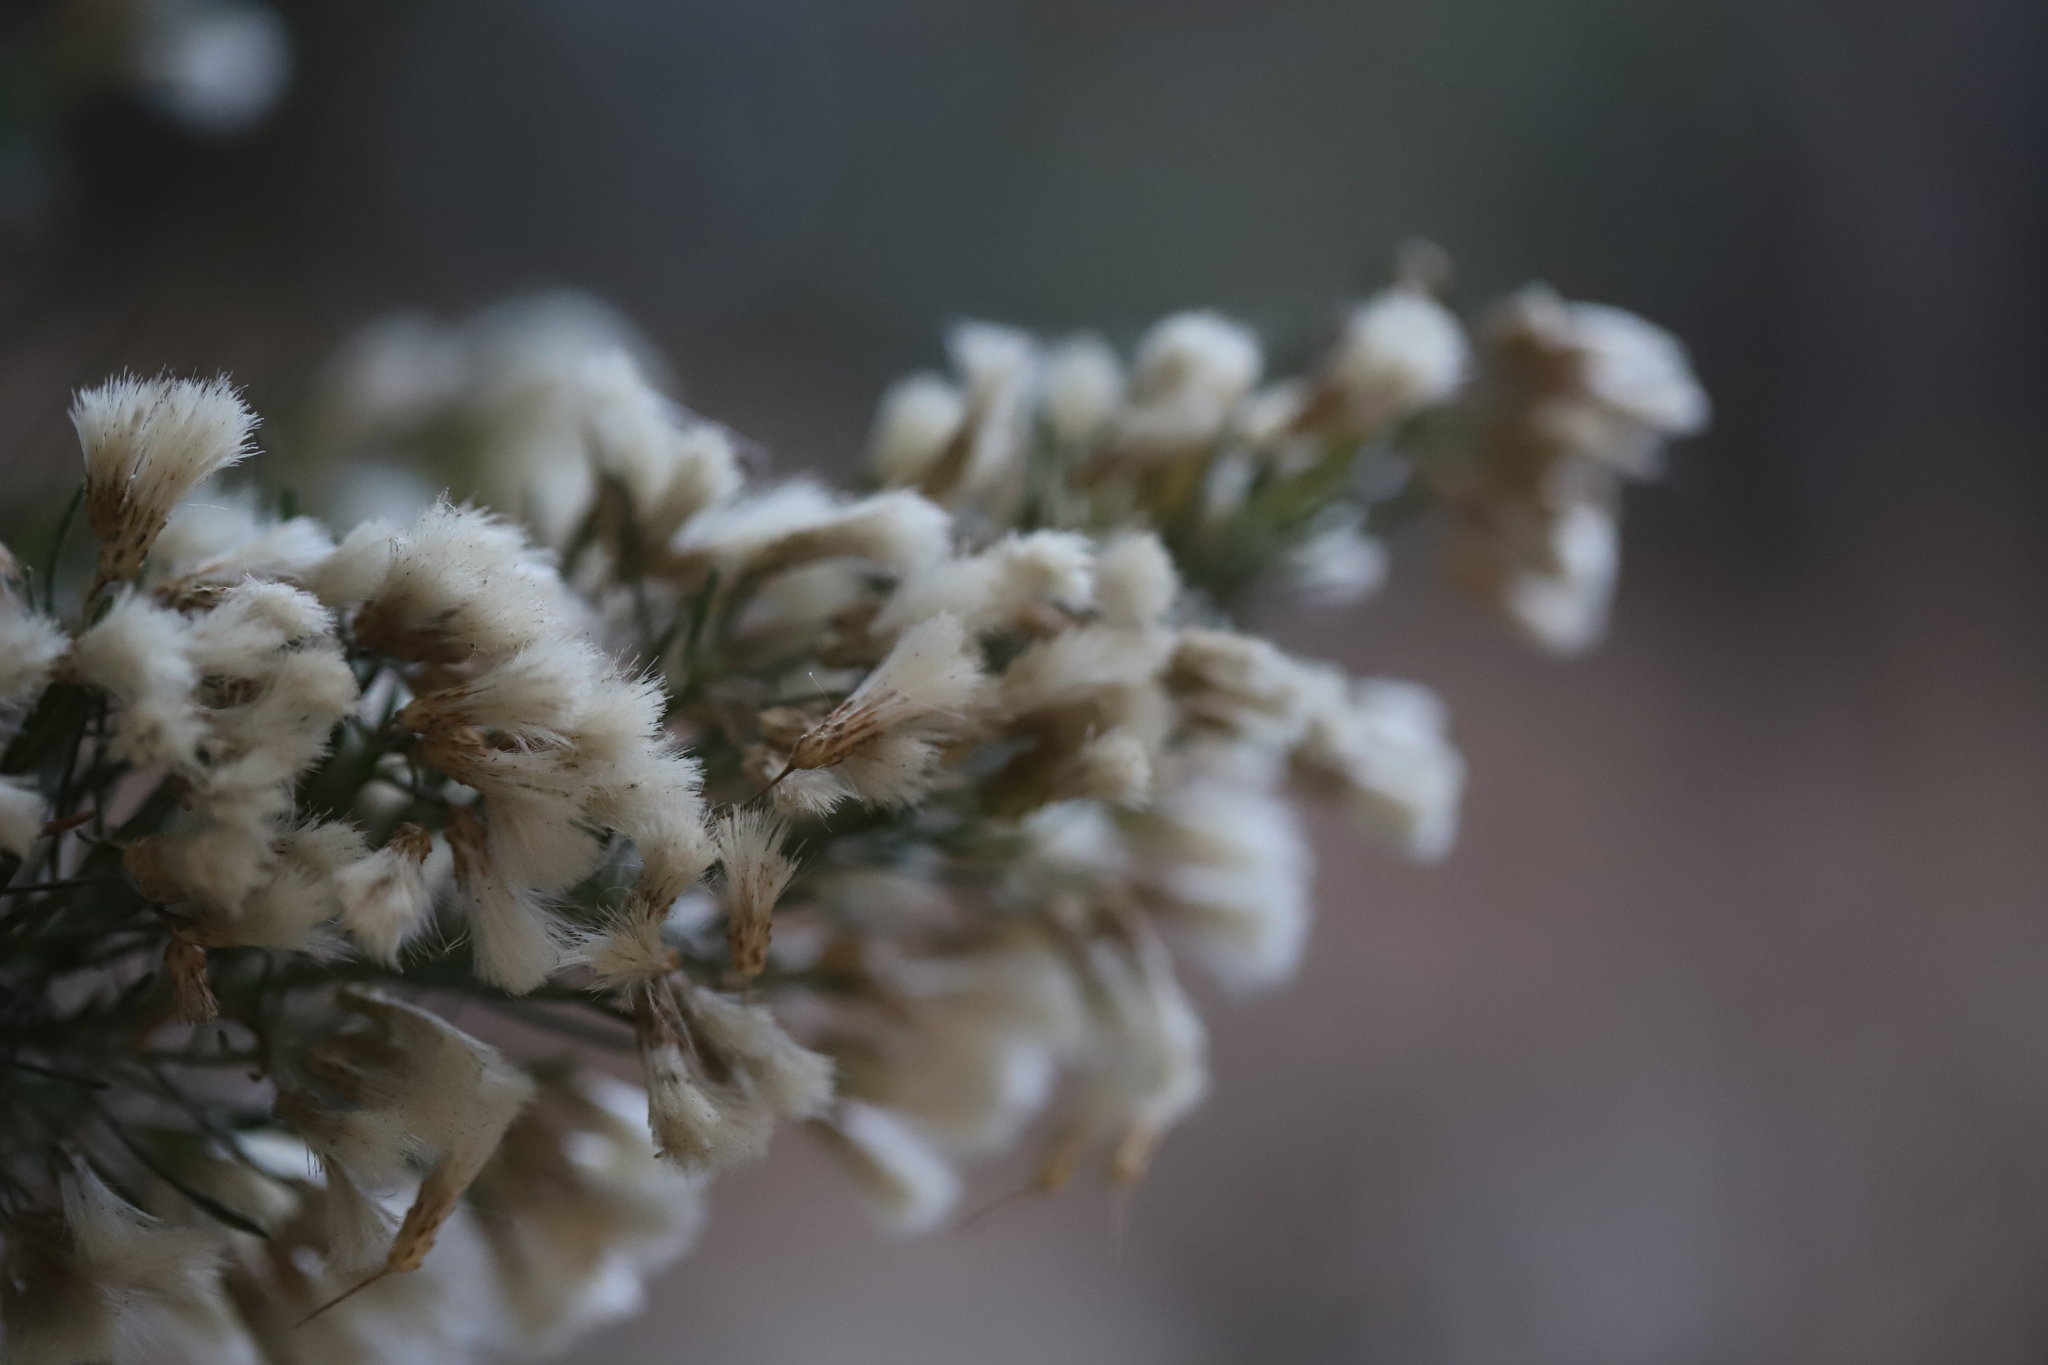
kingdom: Plantae
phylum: Tracheophyta
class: Magnoliopsida
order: Asterales
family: Asteraceae
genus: Baccharis
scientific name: Baccharis linearis
